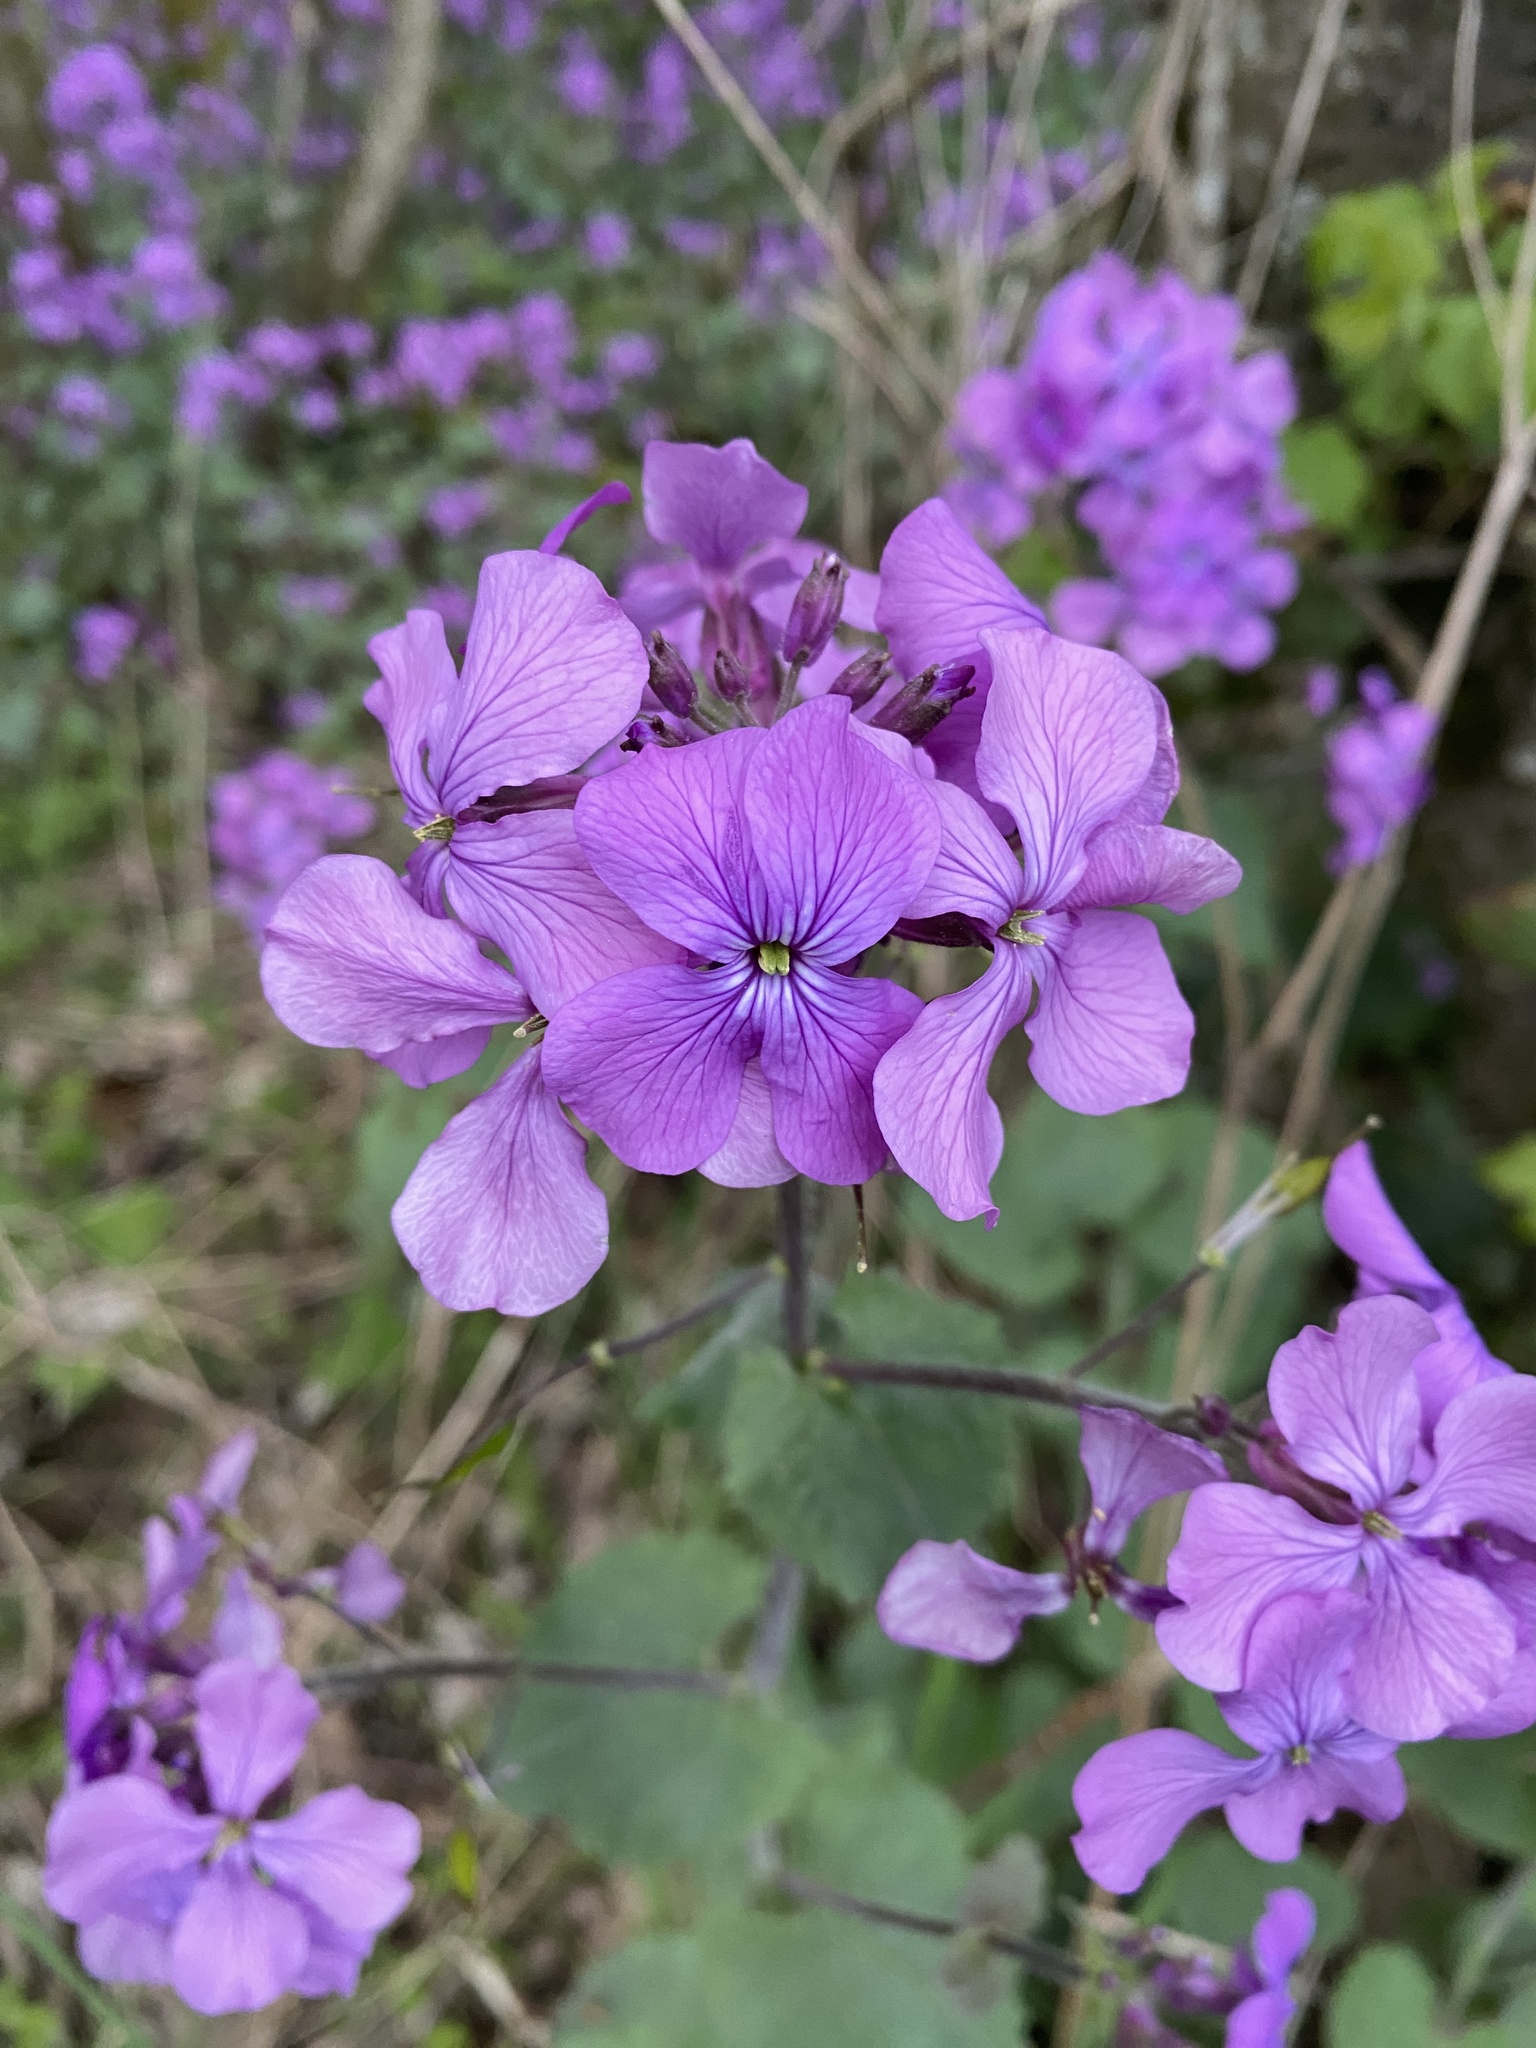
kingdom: Plantae
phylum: Tracheophyta
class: Magnoliopsida
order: Brassicales
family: Brassicaceae
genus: Lunaria
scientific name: Lunaria annua
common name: Honesty
